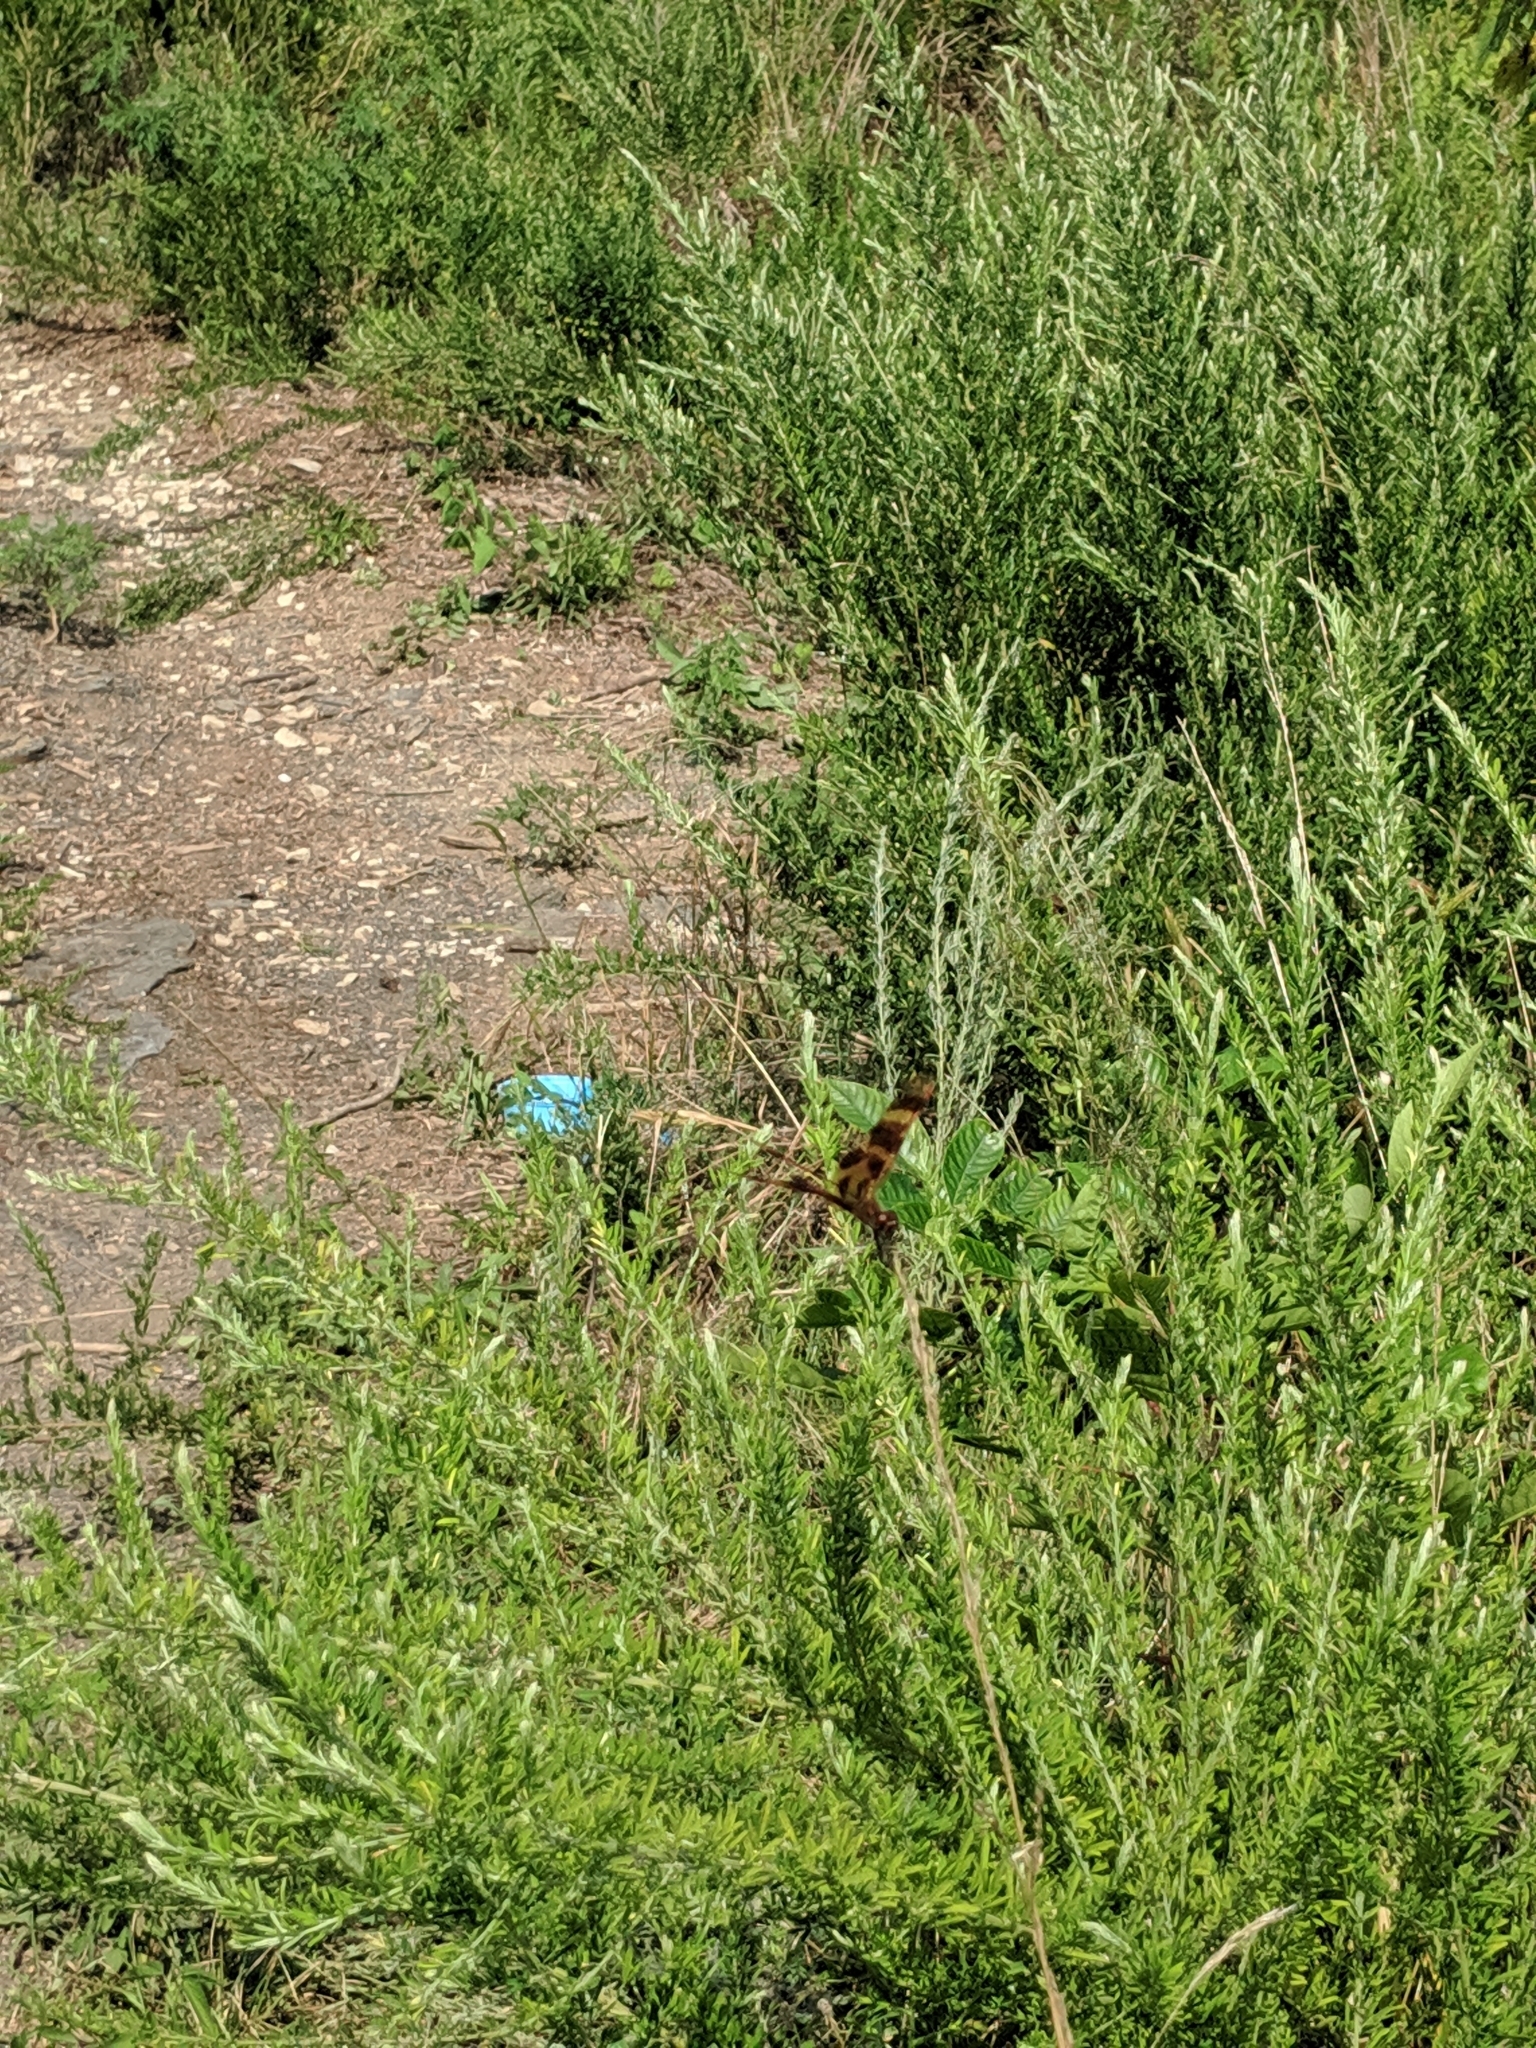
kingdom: Animalia
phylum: Arthropoda
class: Insecta
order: Odonata
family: Libellulidae
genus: Celithemis
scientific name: Celithemis eponina
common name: Halloween pennant
